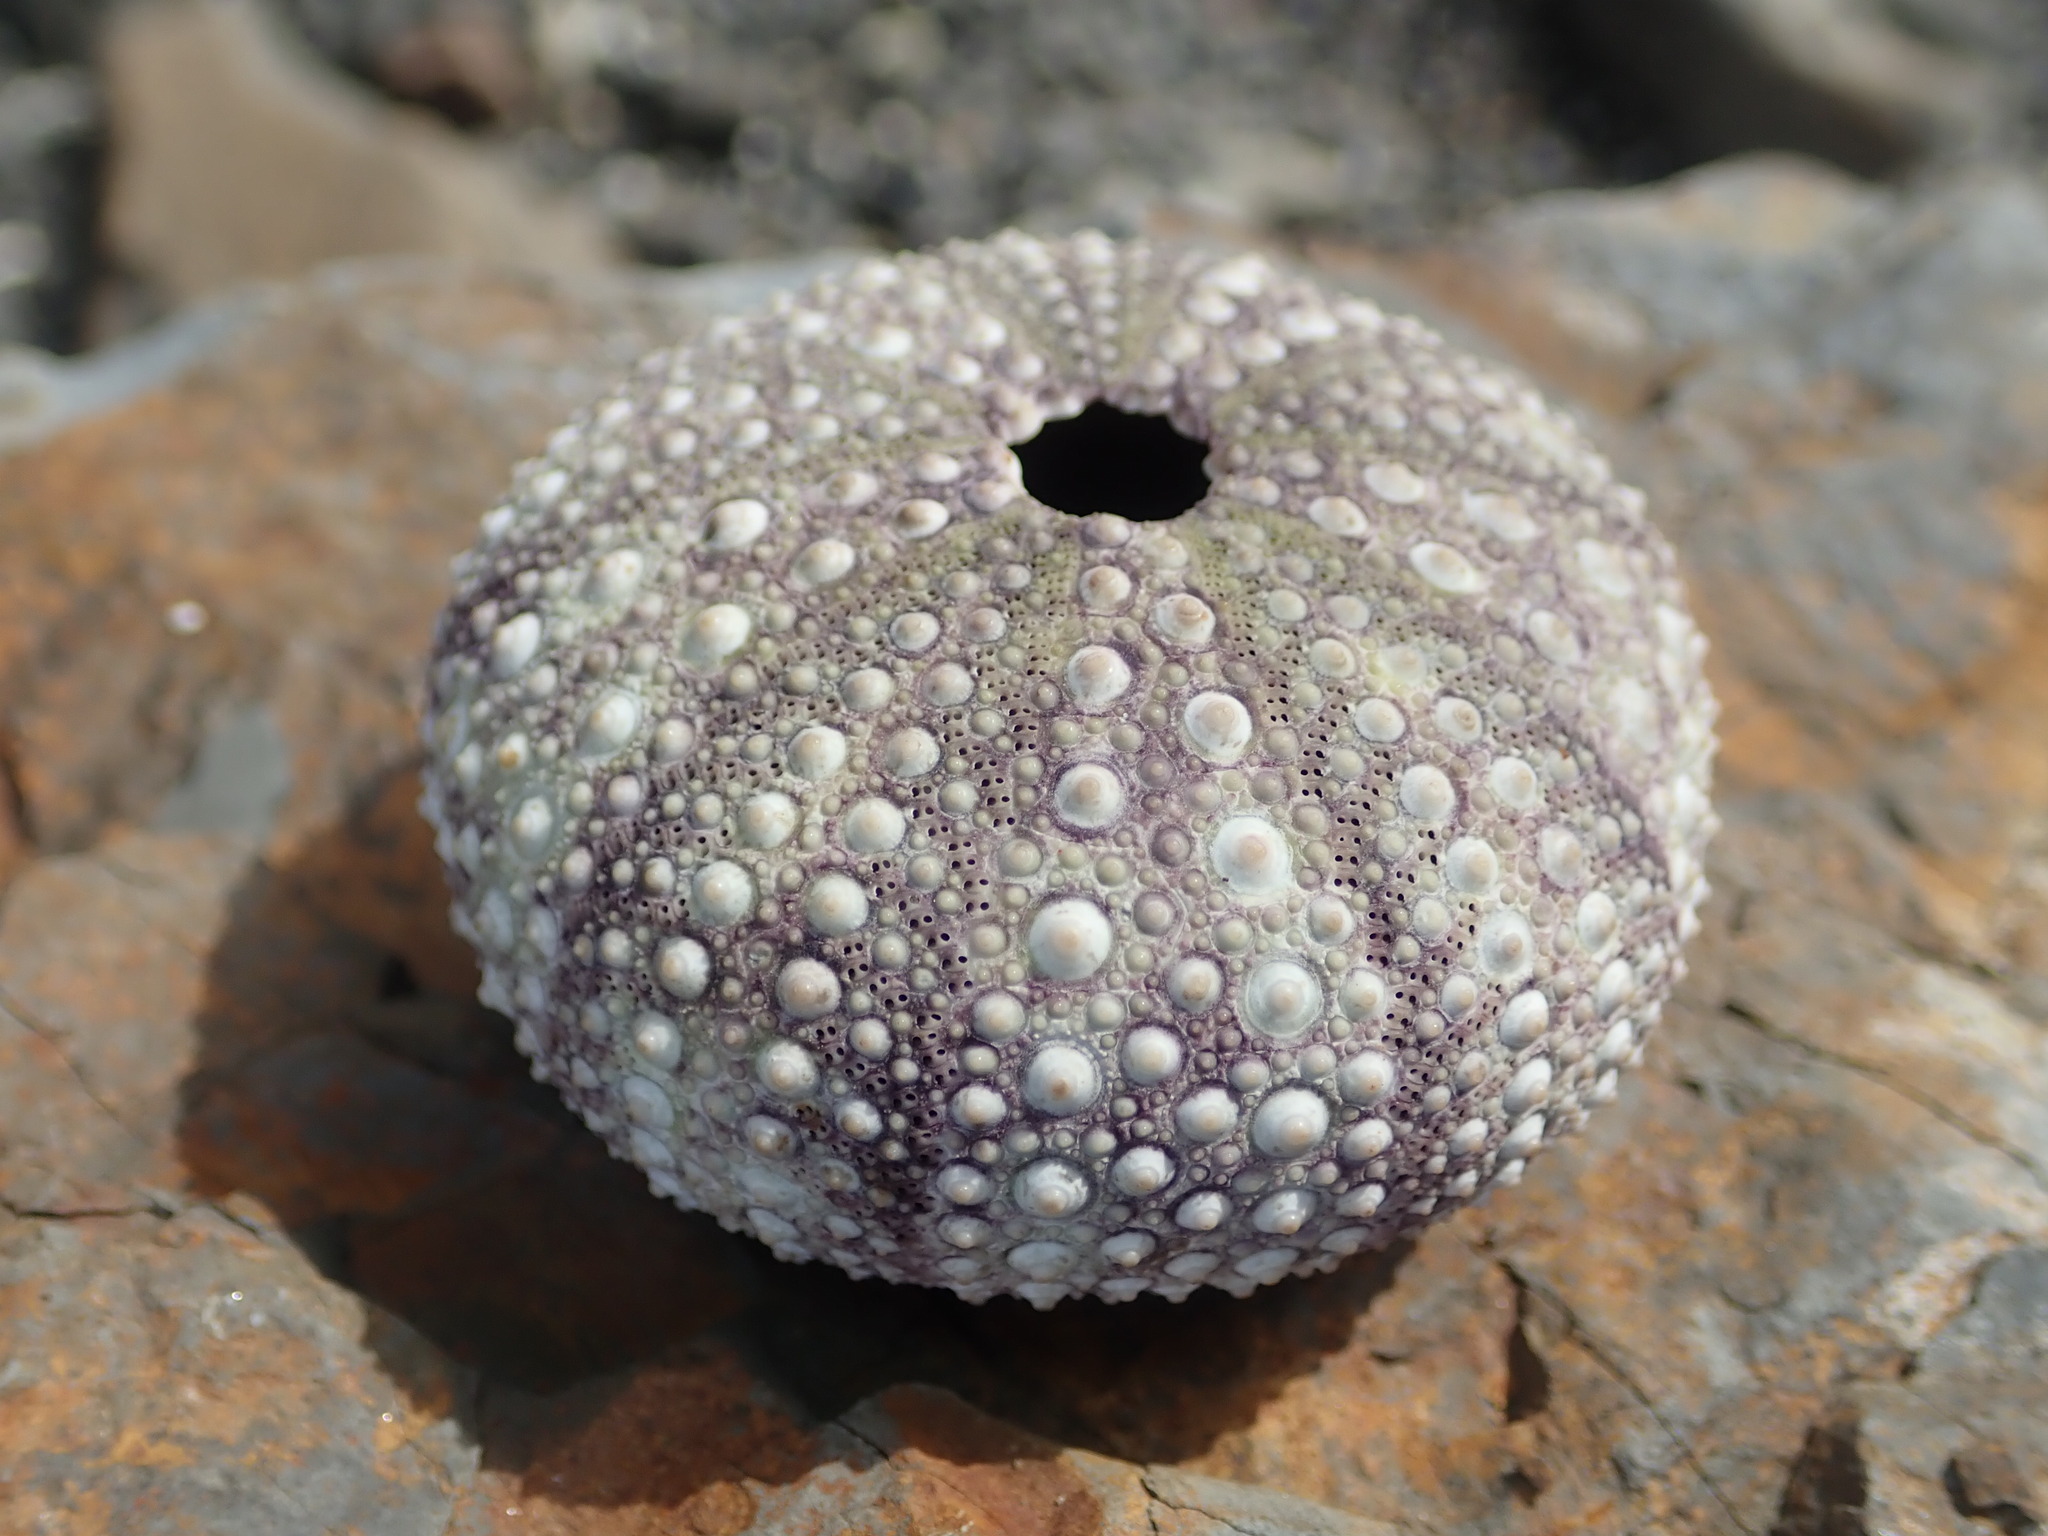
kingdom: Animalia
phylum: Echinodermata
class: Echinoidea
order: Camarodonta
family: Strongylocentrotidae
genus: Strongylocentrotus
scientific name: Strongylocentrotus purpuratus
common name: Purple sea urchin
